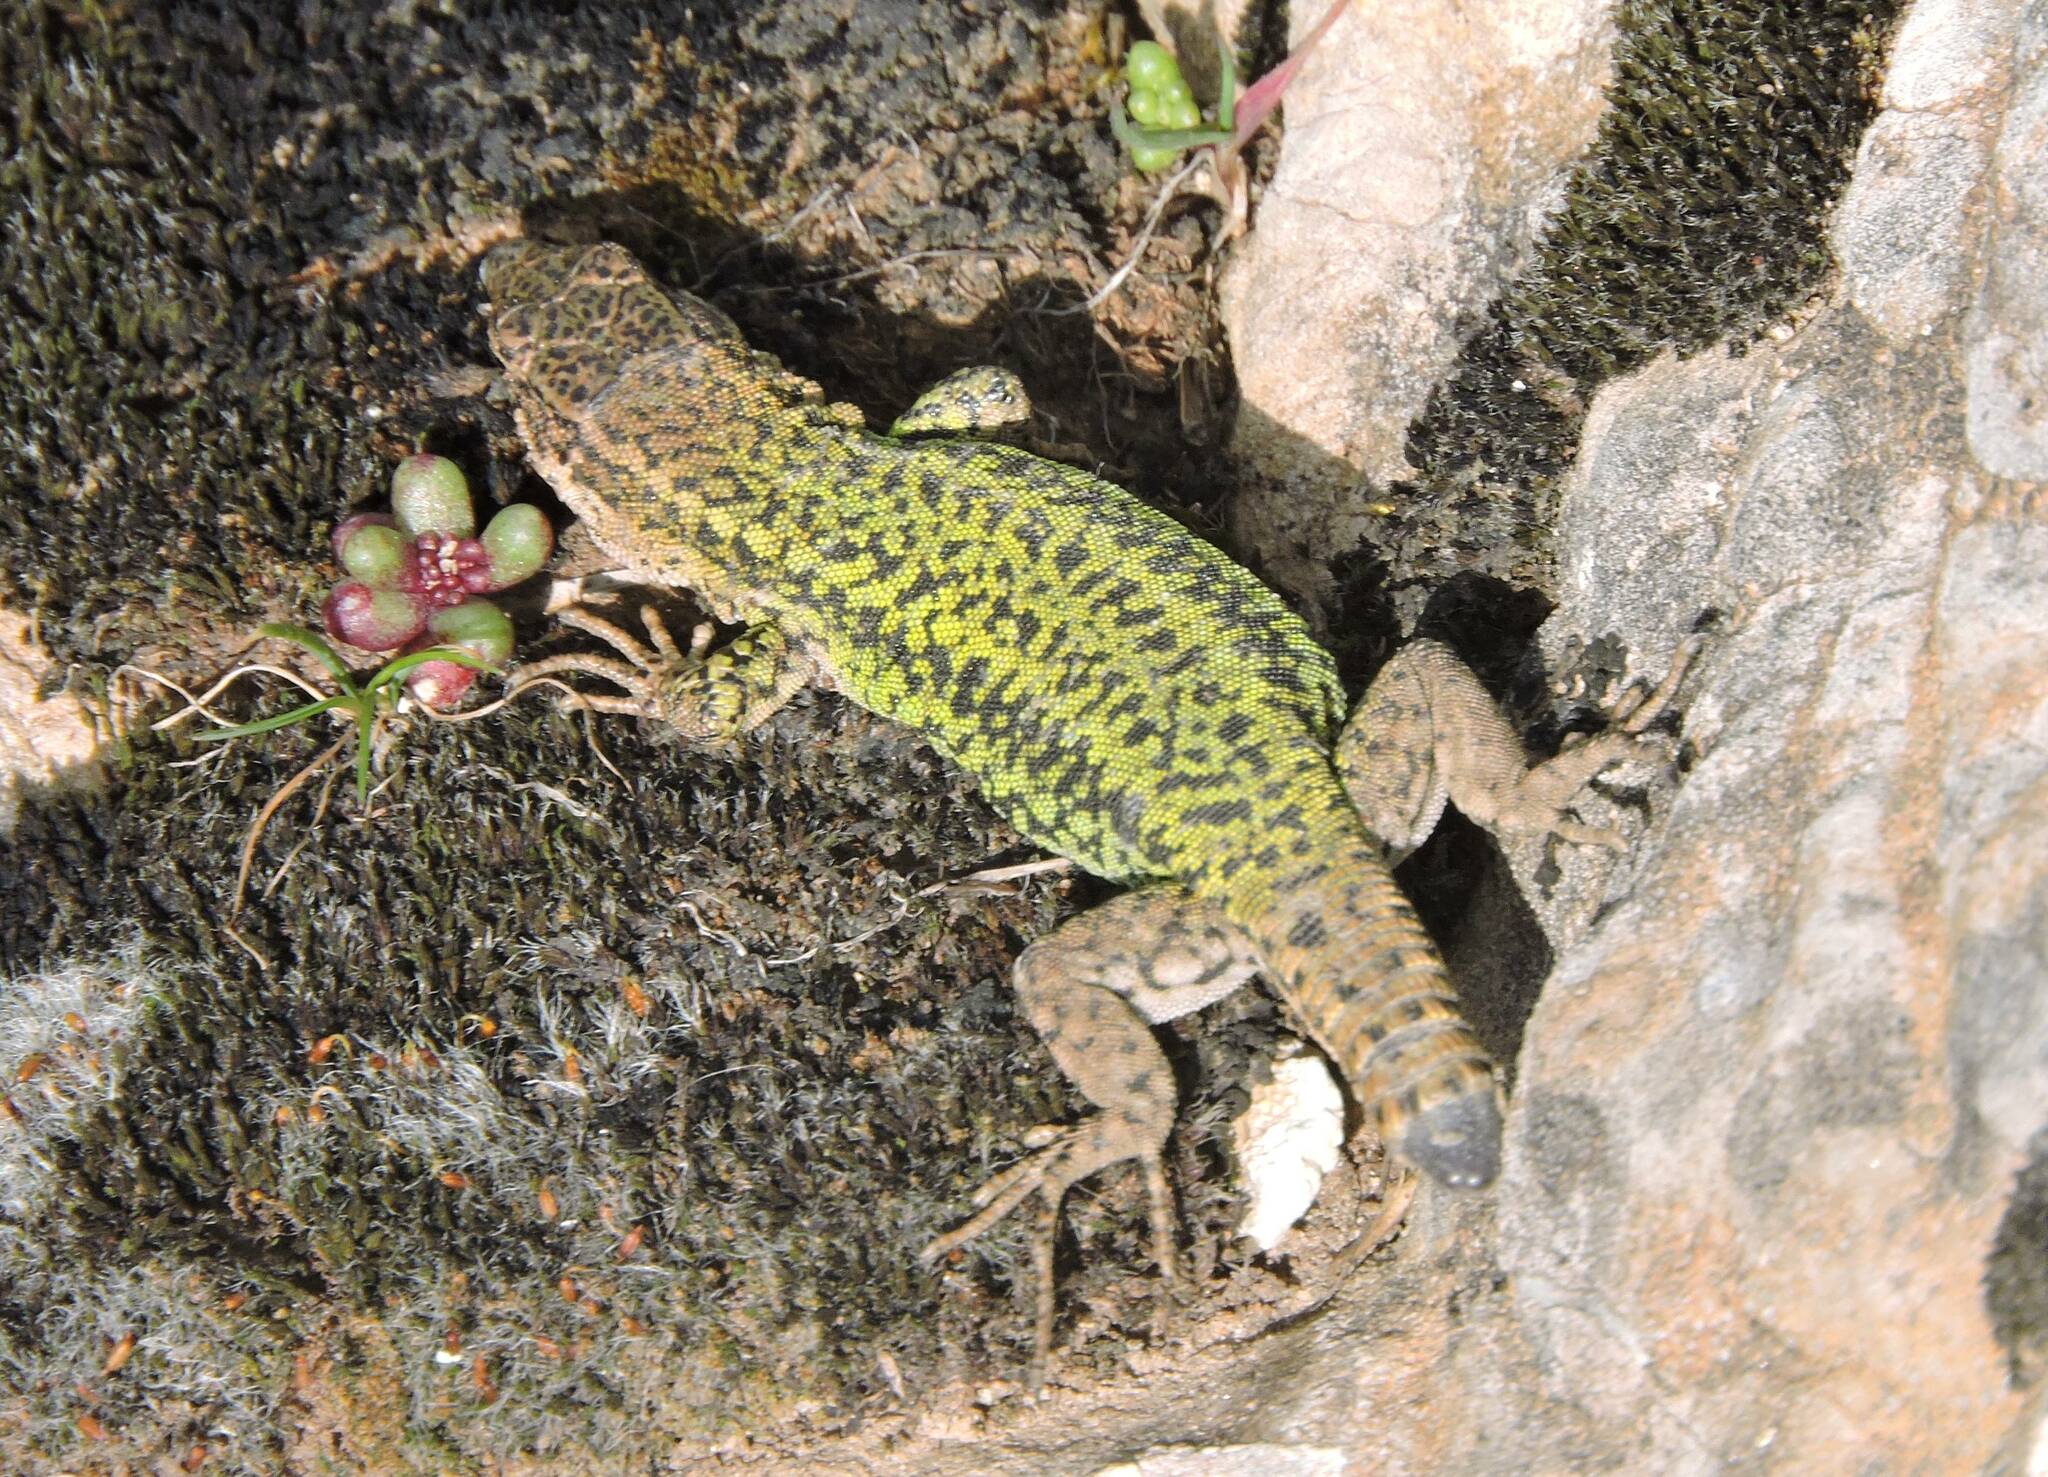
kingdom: Animalia
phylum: Chordata
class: Squamata
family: Lacertidae
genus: Podarcis
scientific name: Podarcis vaucheri
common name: Vaucher's wall lizard
